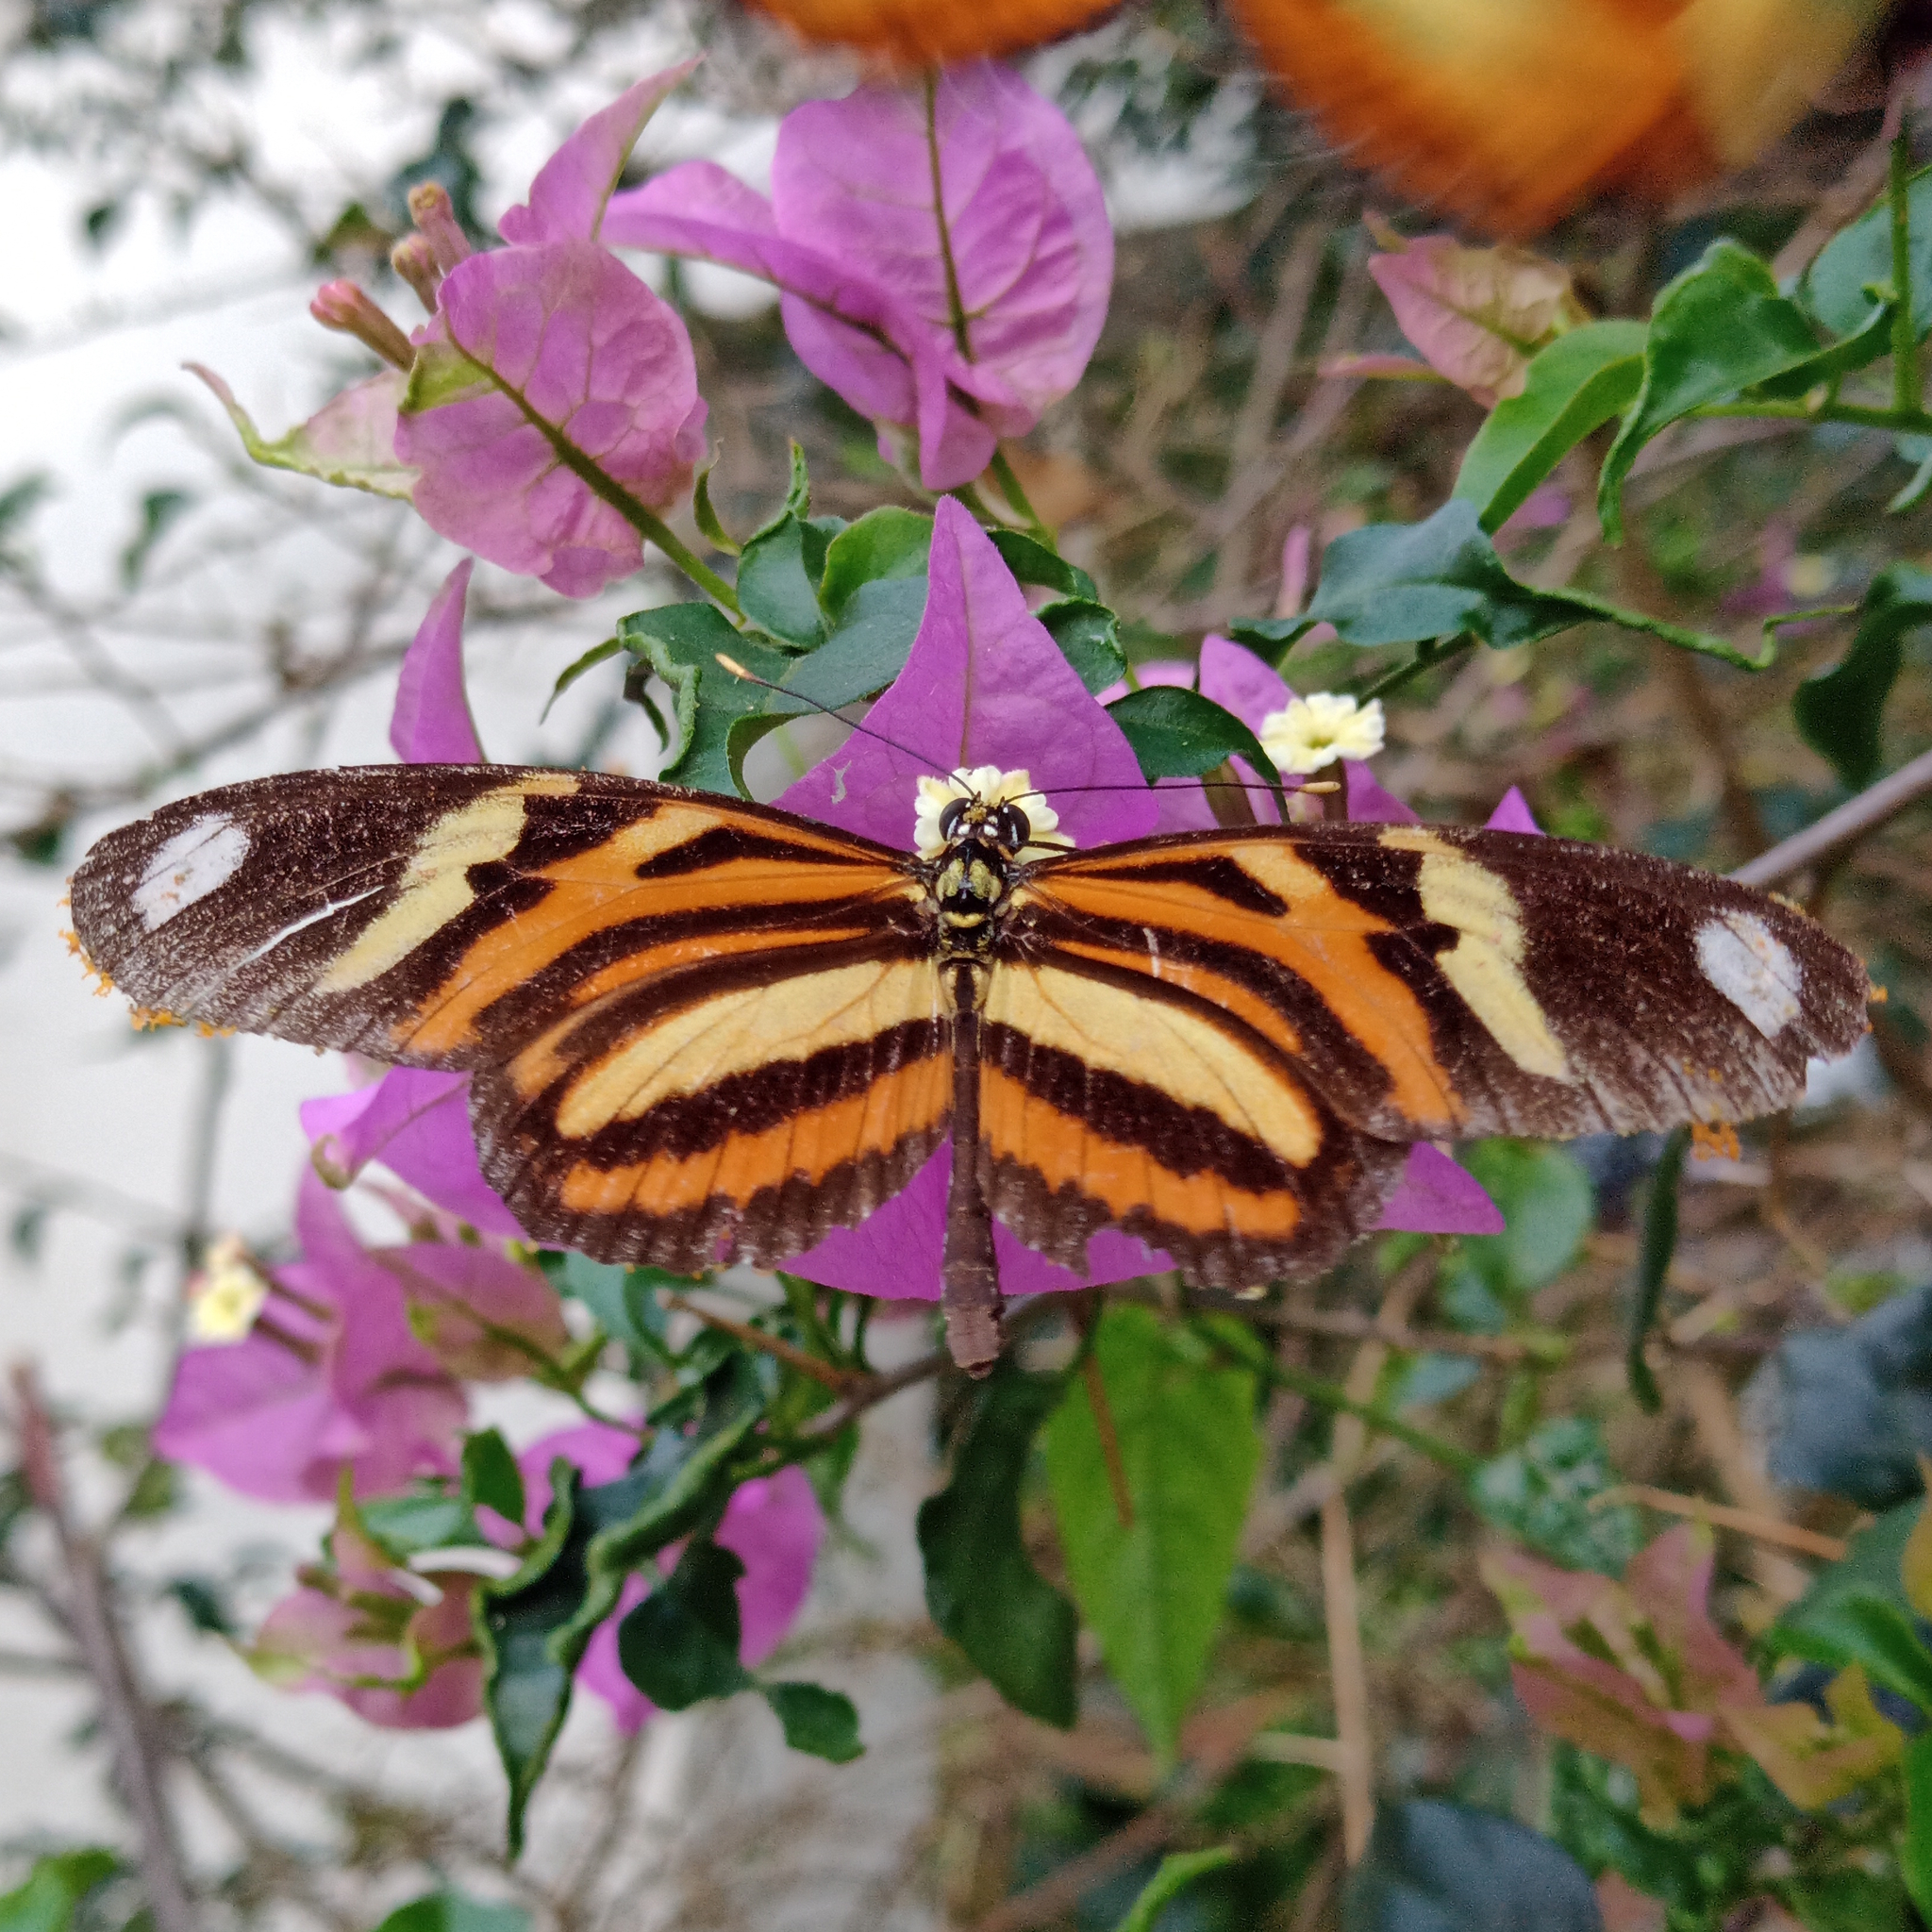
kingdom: Animalia
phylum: Arthropoda
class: Insecta
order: Lepidoptera
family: Nymphalidae
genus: Heliconius
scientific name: Heliconius ethilla
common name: Ethilia longwing
